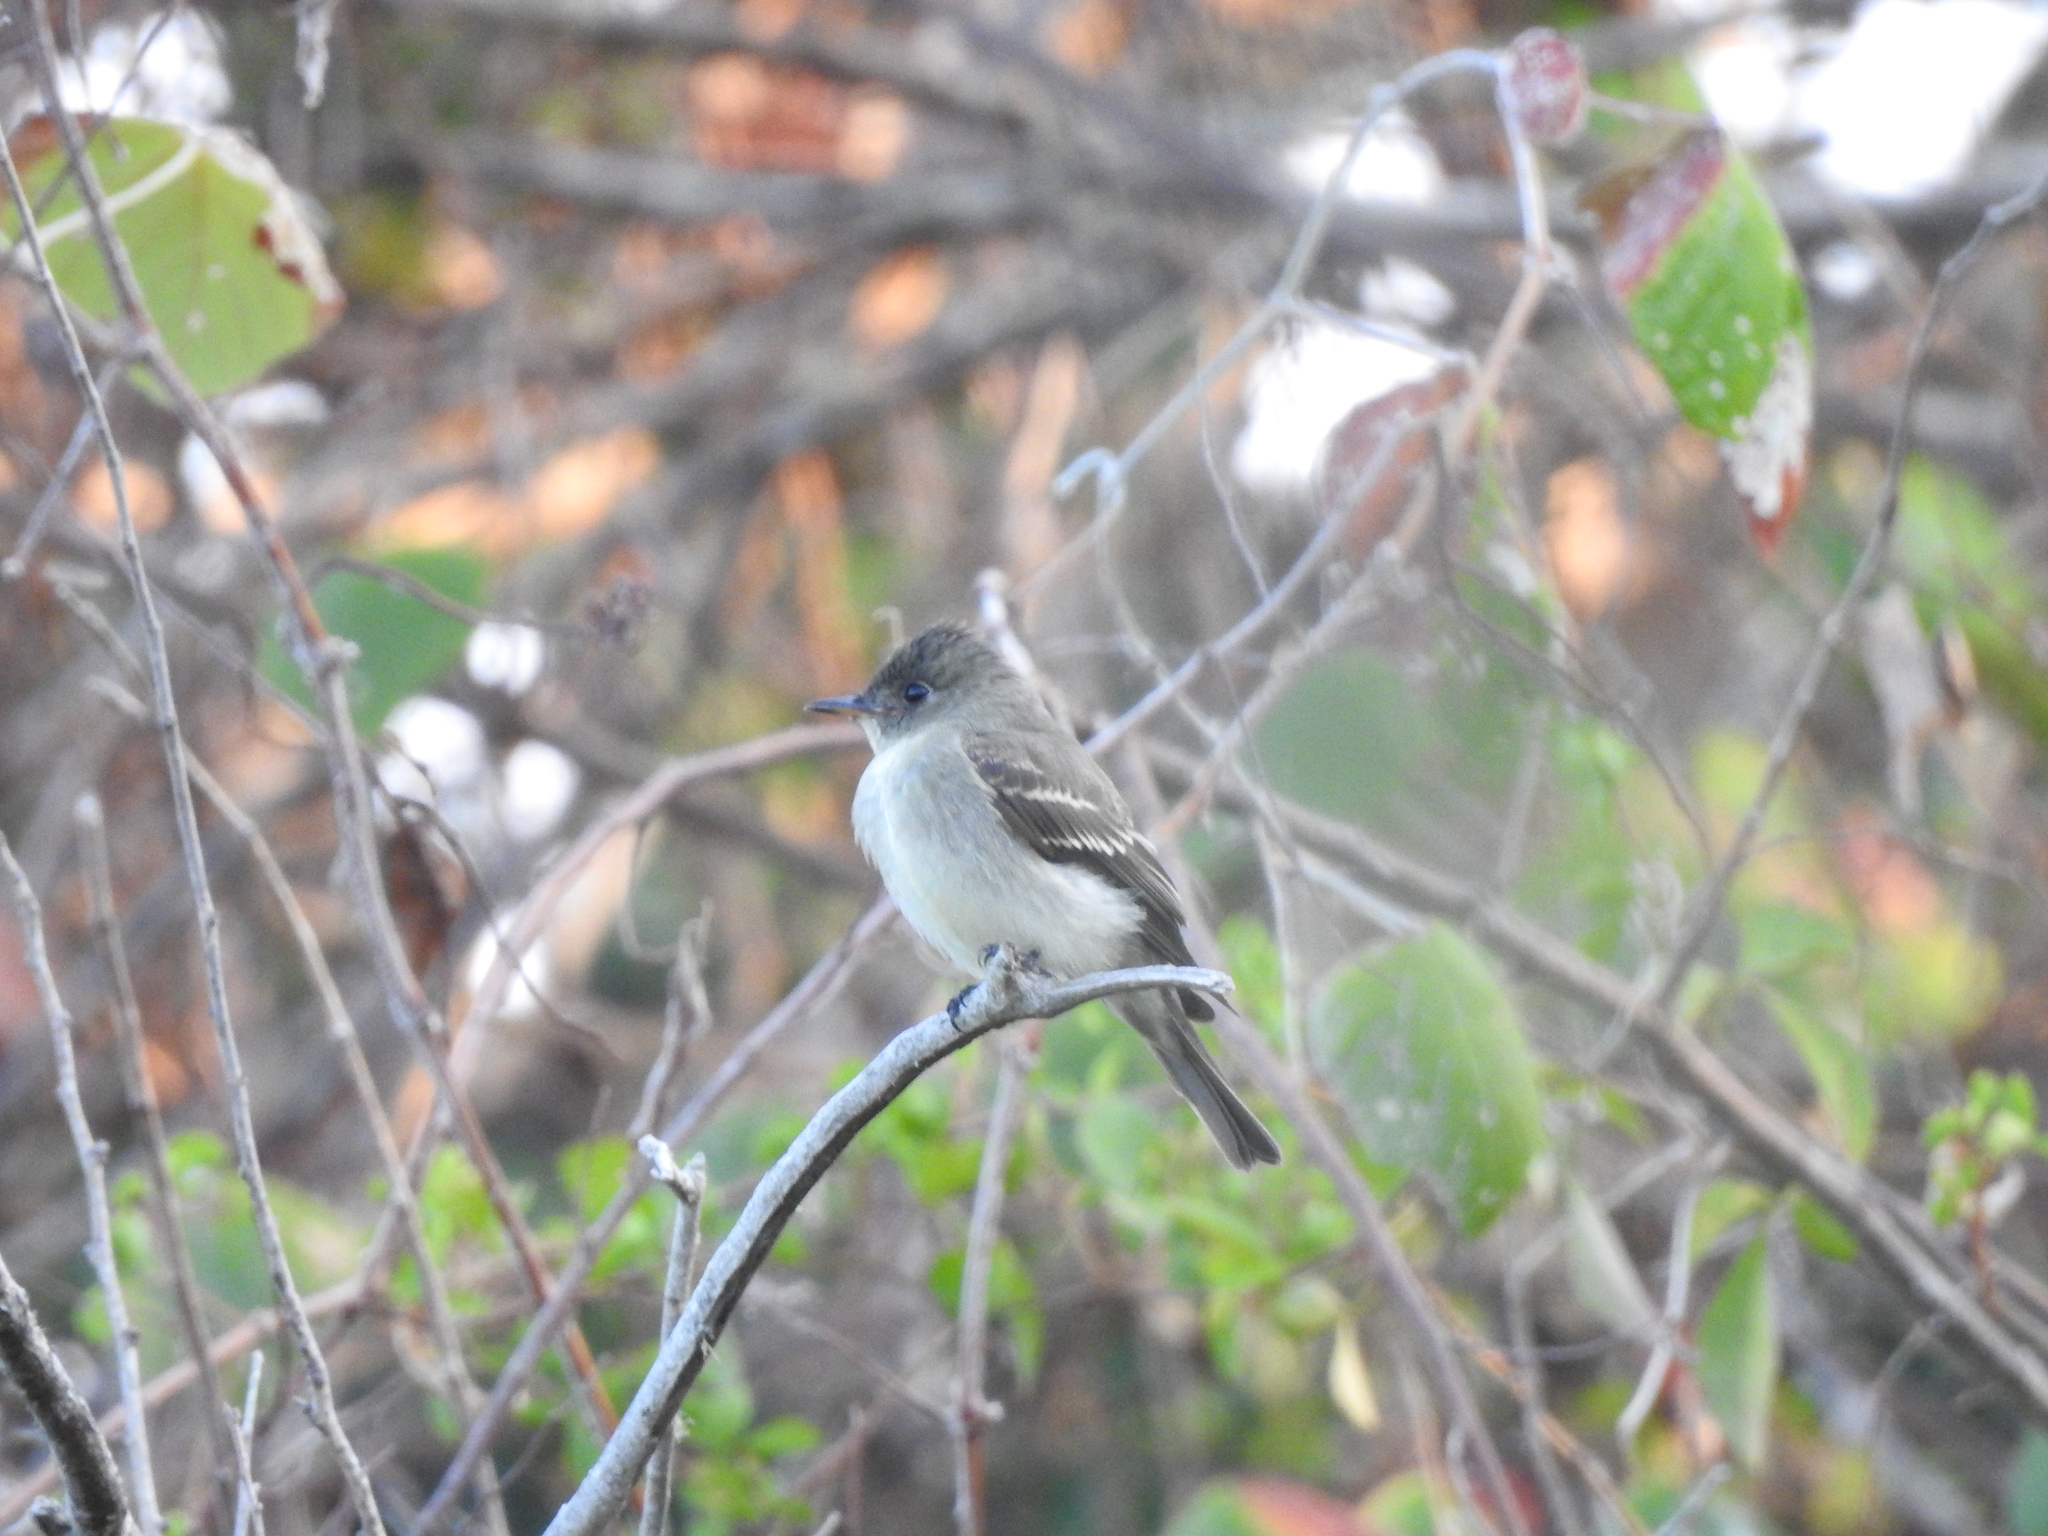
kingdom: Animalia
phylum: Chordata
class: Aves
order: Passeriformes
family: Tyrannidae
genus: Contopus
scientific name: Contopus virens
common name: Eastern wood-pewee
